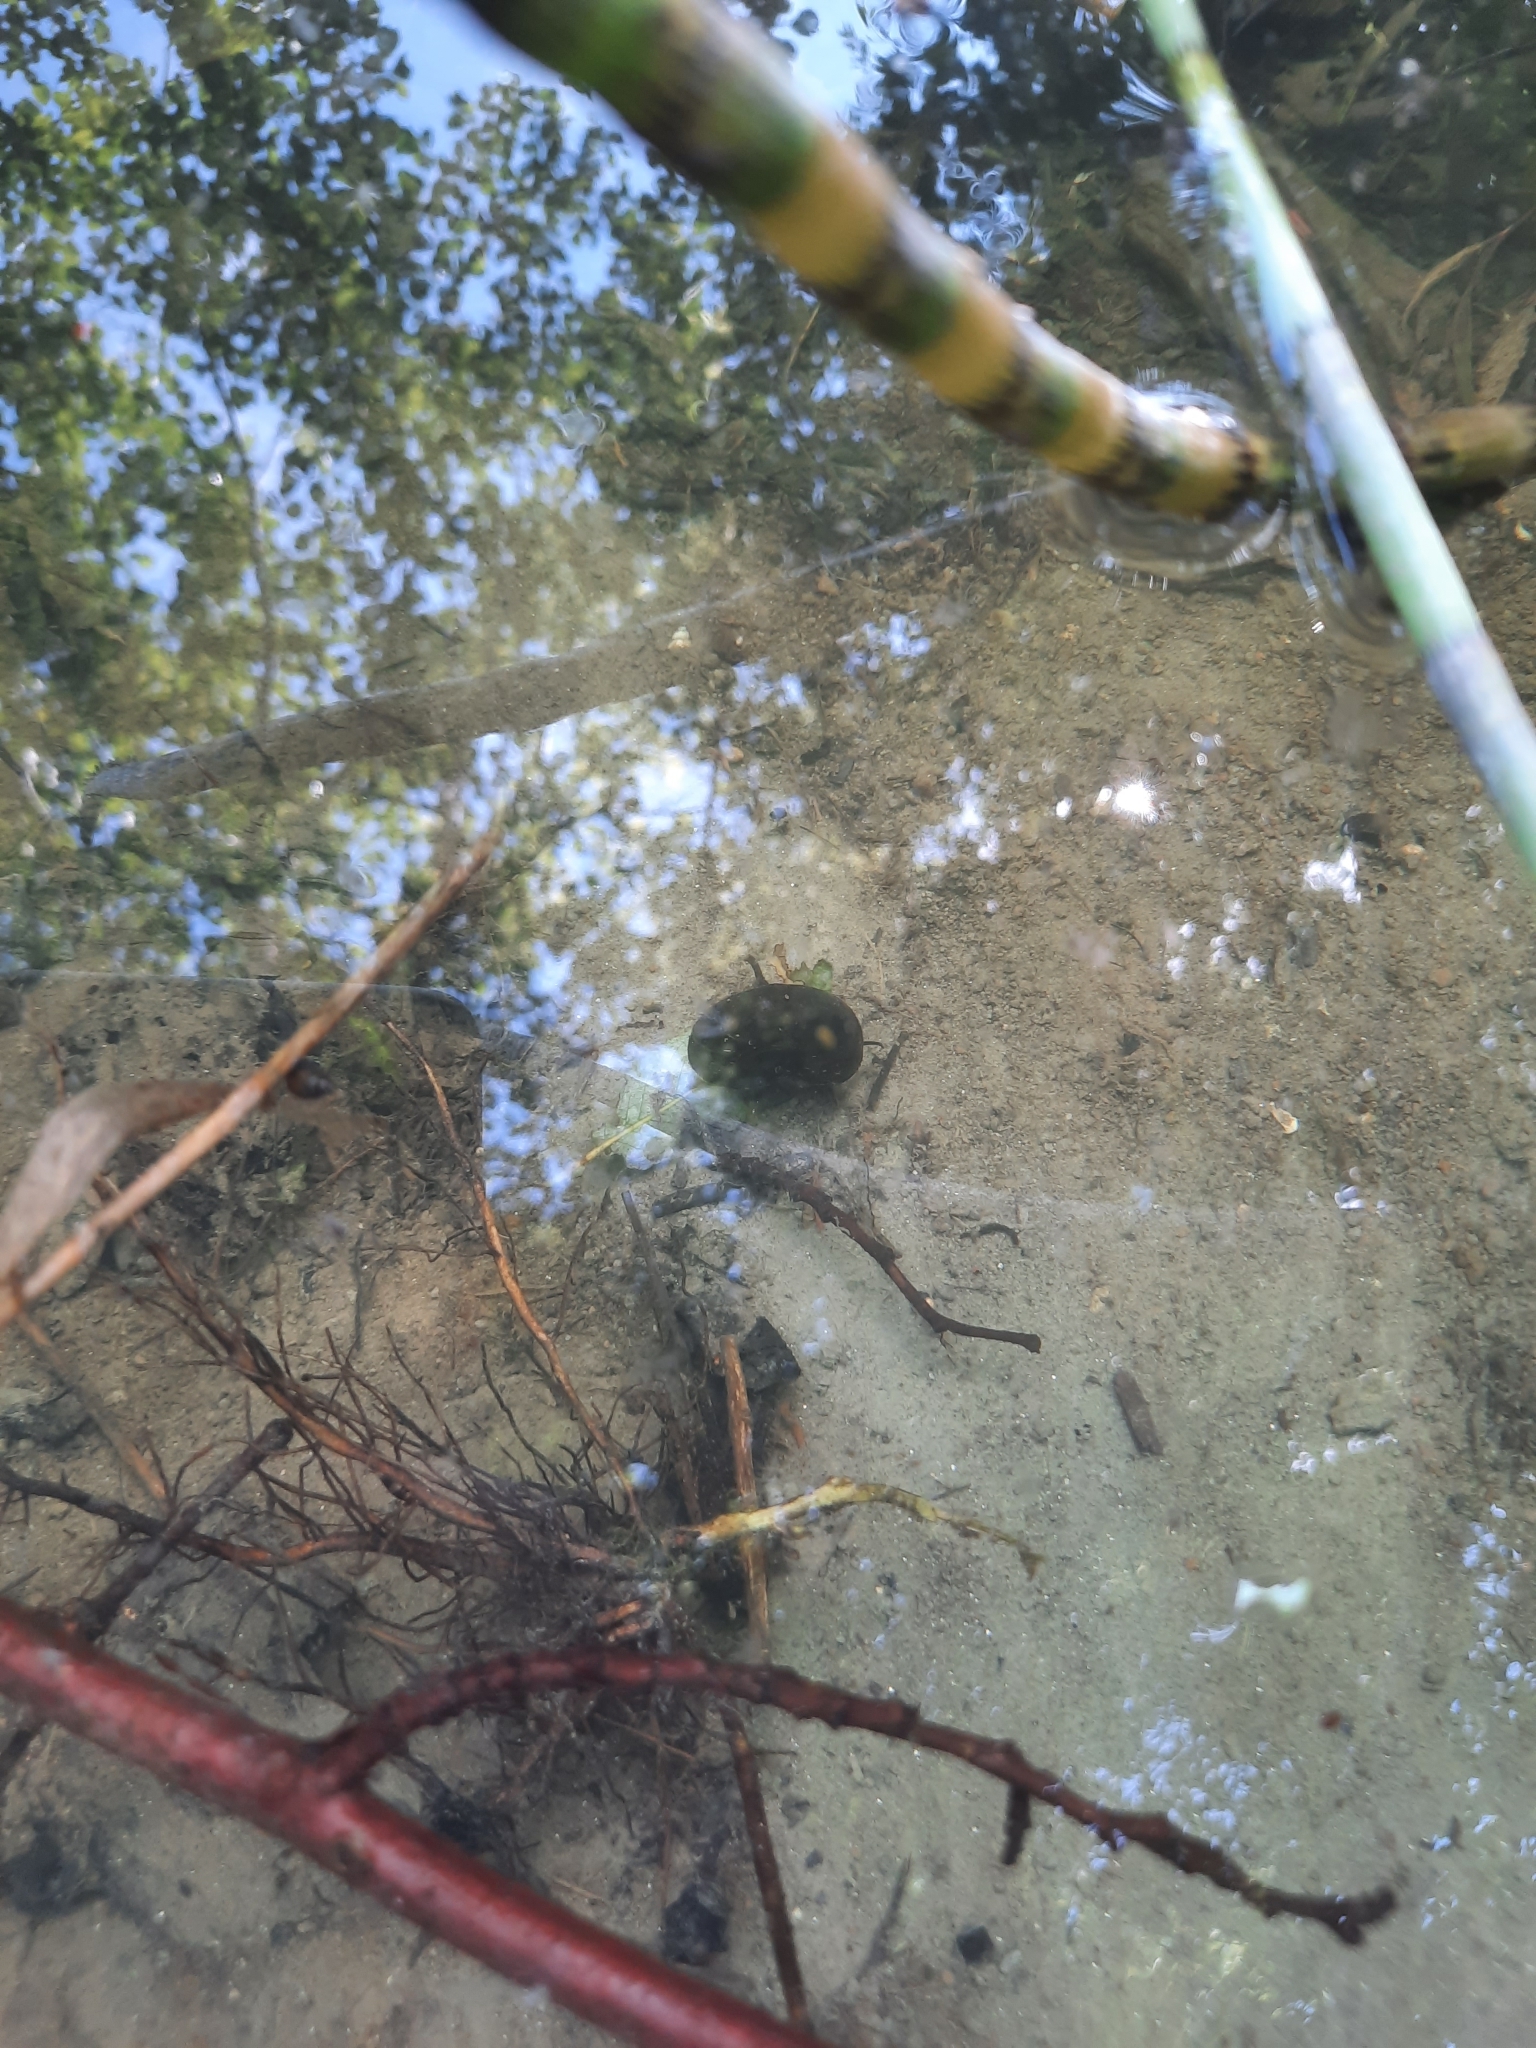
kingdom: Animalia
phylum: Mollusca
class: Gastropoda
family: Planorbidae
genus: Planorbarius
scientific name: Planorbarius corneus
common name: Great ramshorn
